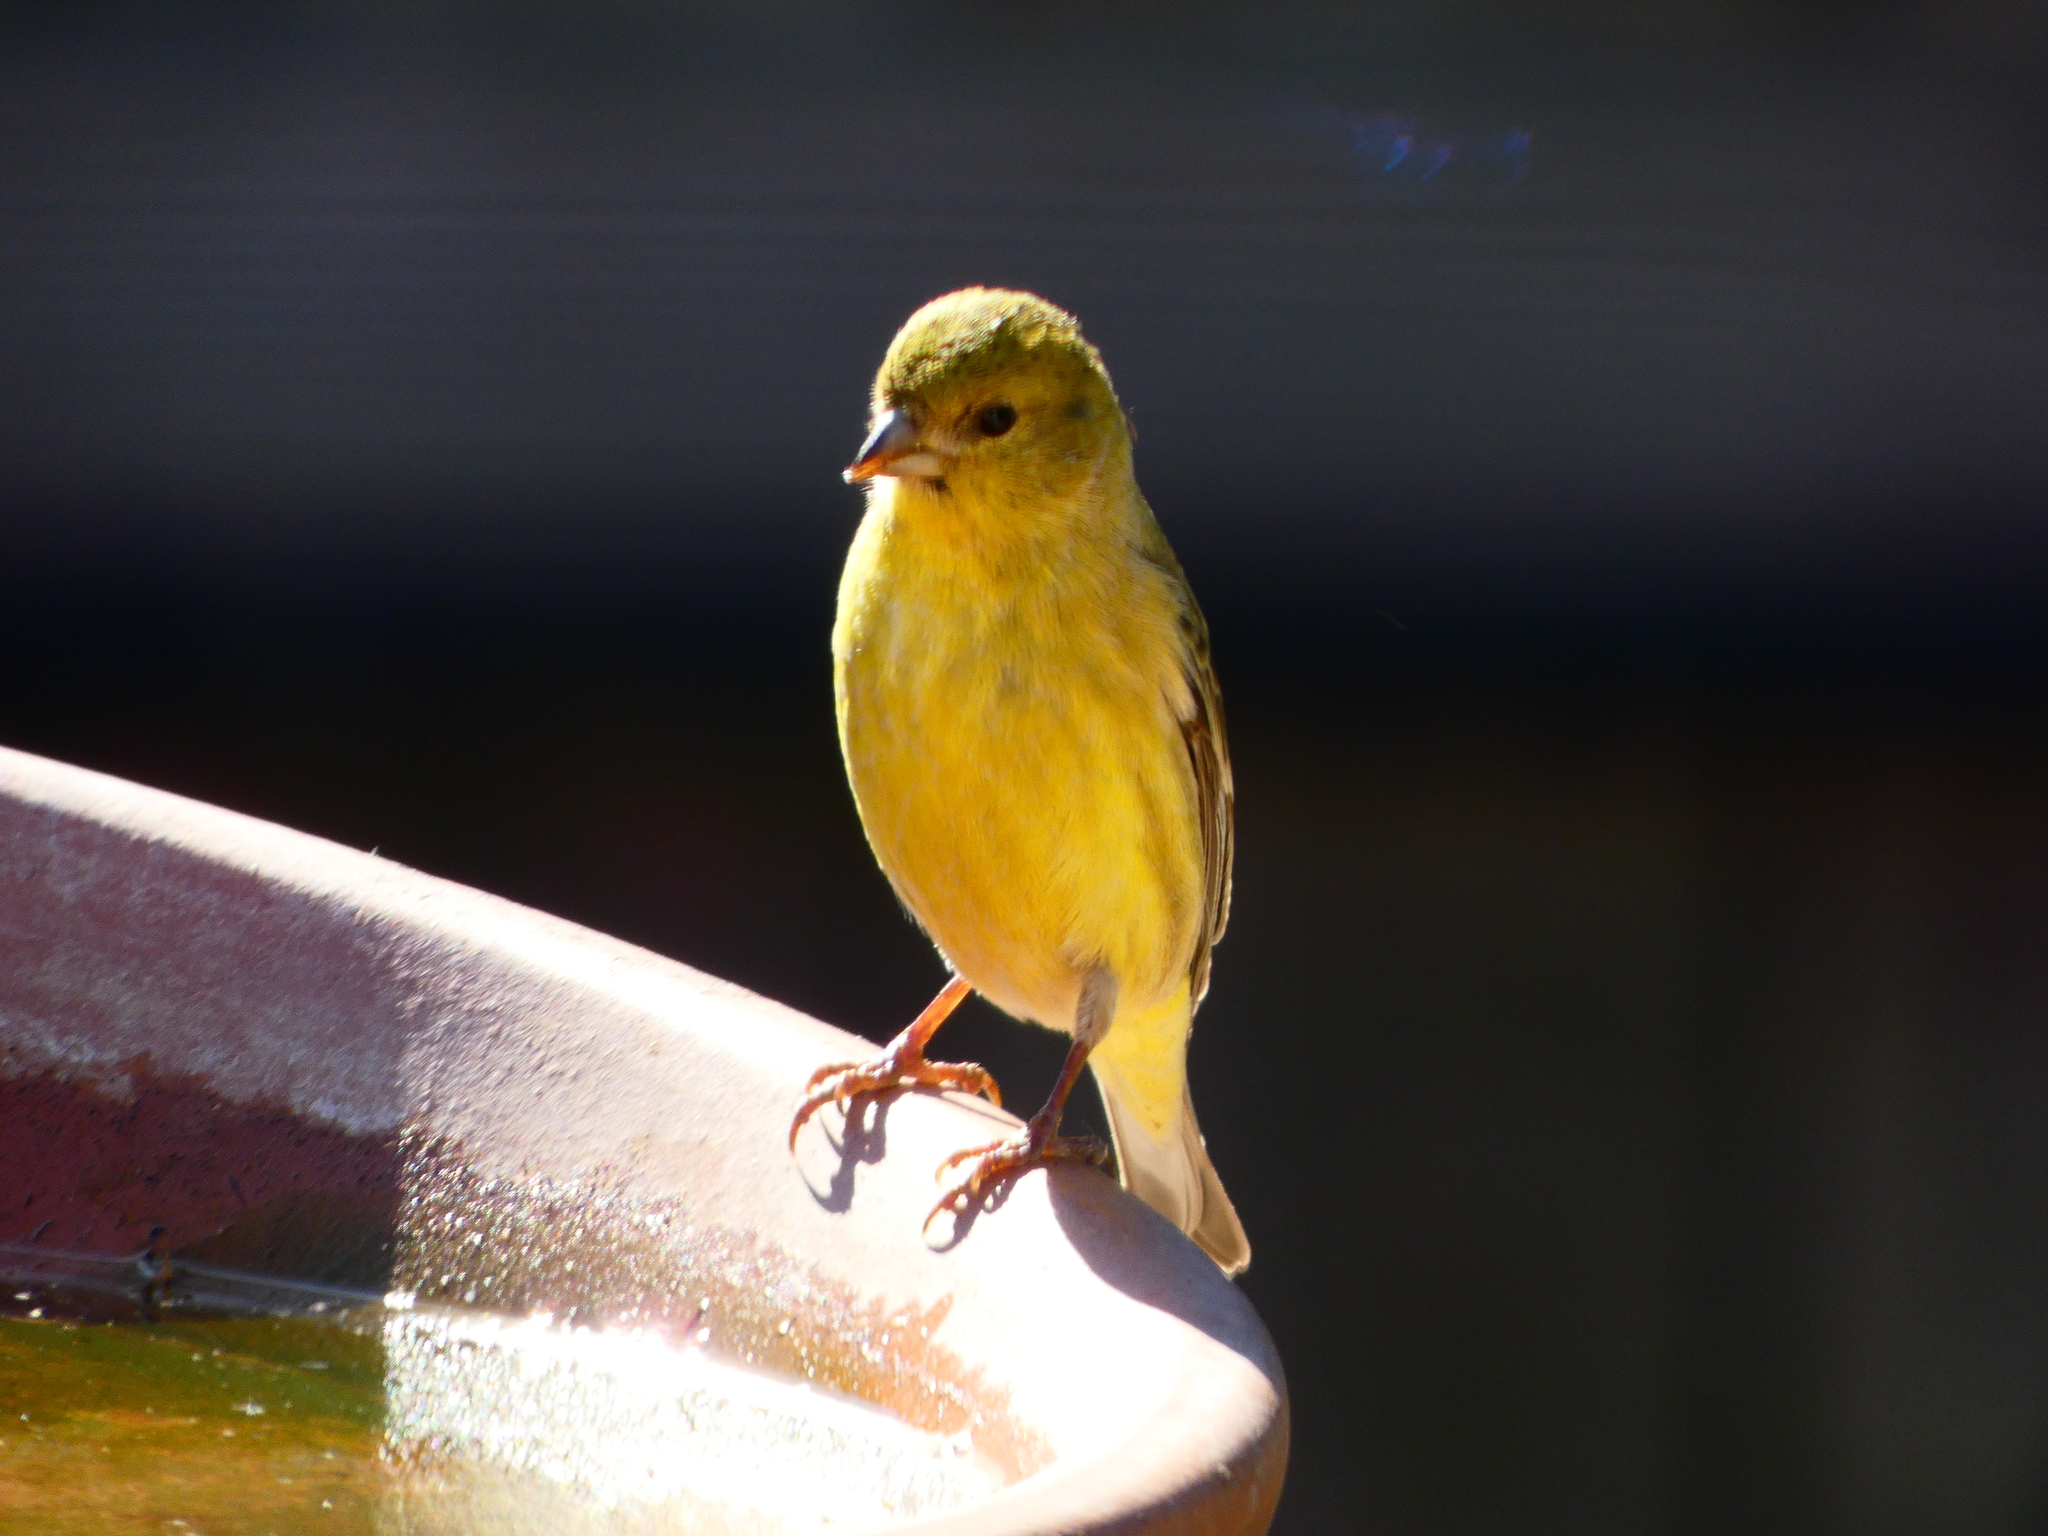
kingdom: Animalia
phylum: Chordata
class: Aves
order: Passeriformes
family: Fringillidae
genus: Spinus
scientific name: Spinus psaltria
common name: Lesser goldfinch
